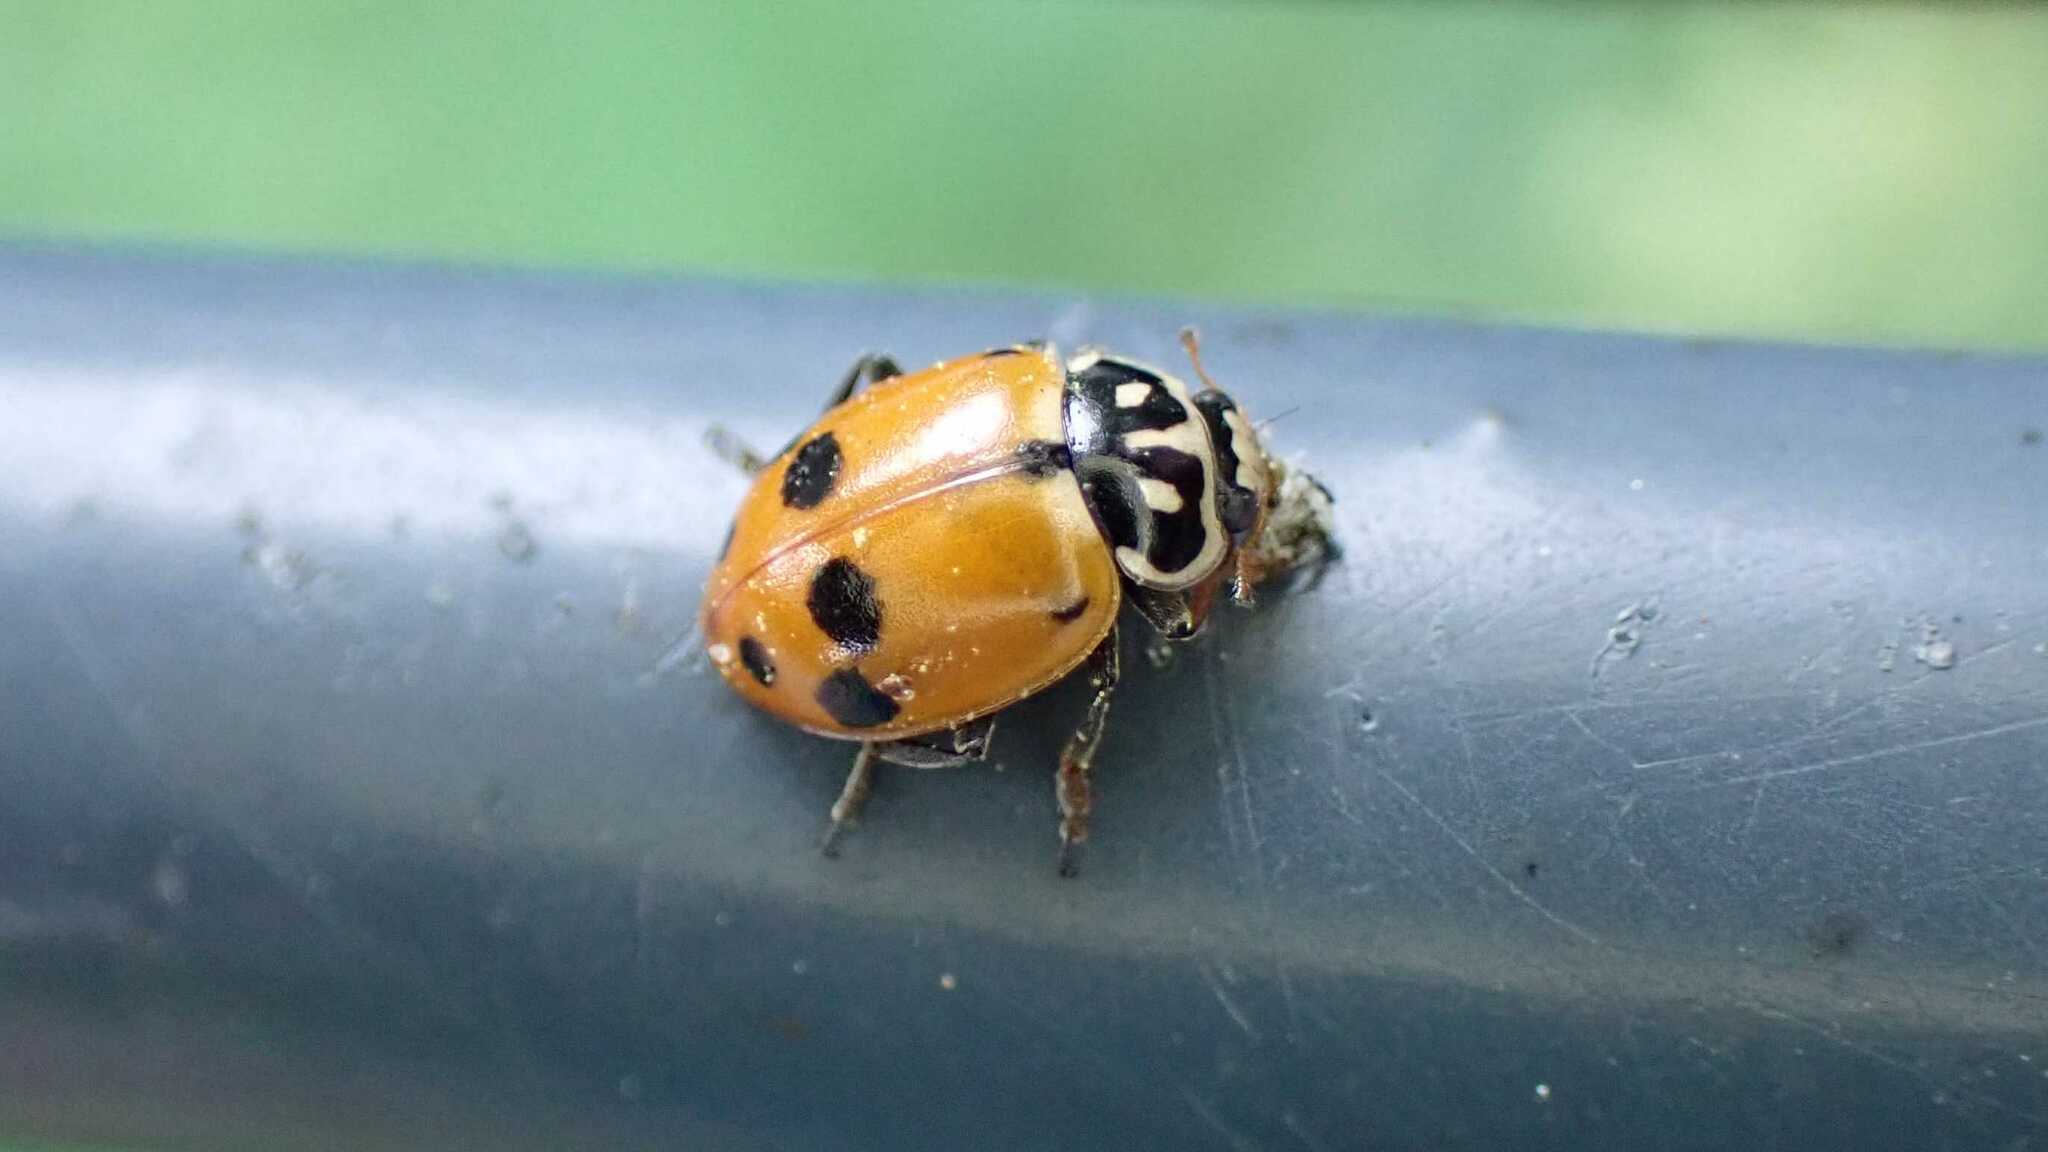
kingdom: Animalia
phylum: Arthropoda
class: Insecta
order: Coleoptera
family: Coccinellidae
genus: Hippodamia
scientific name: Hippodamia variegata
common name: Ladybird beetle
